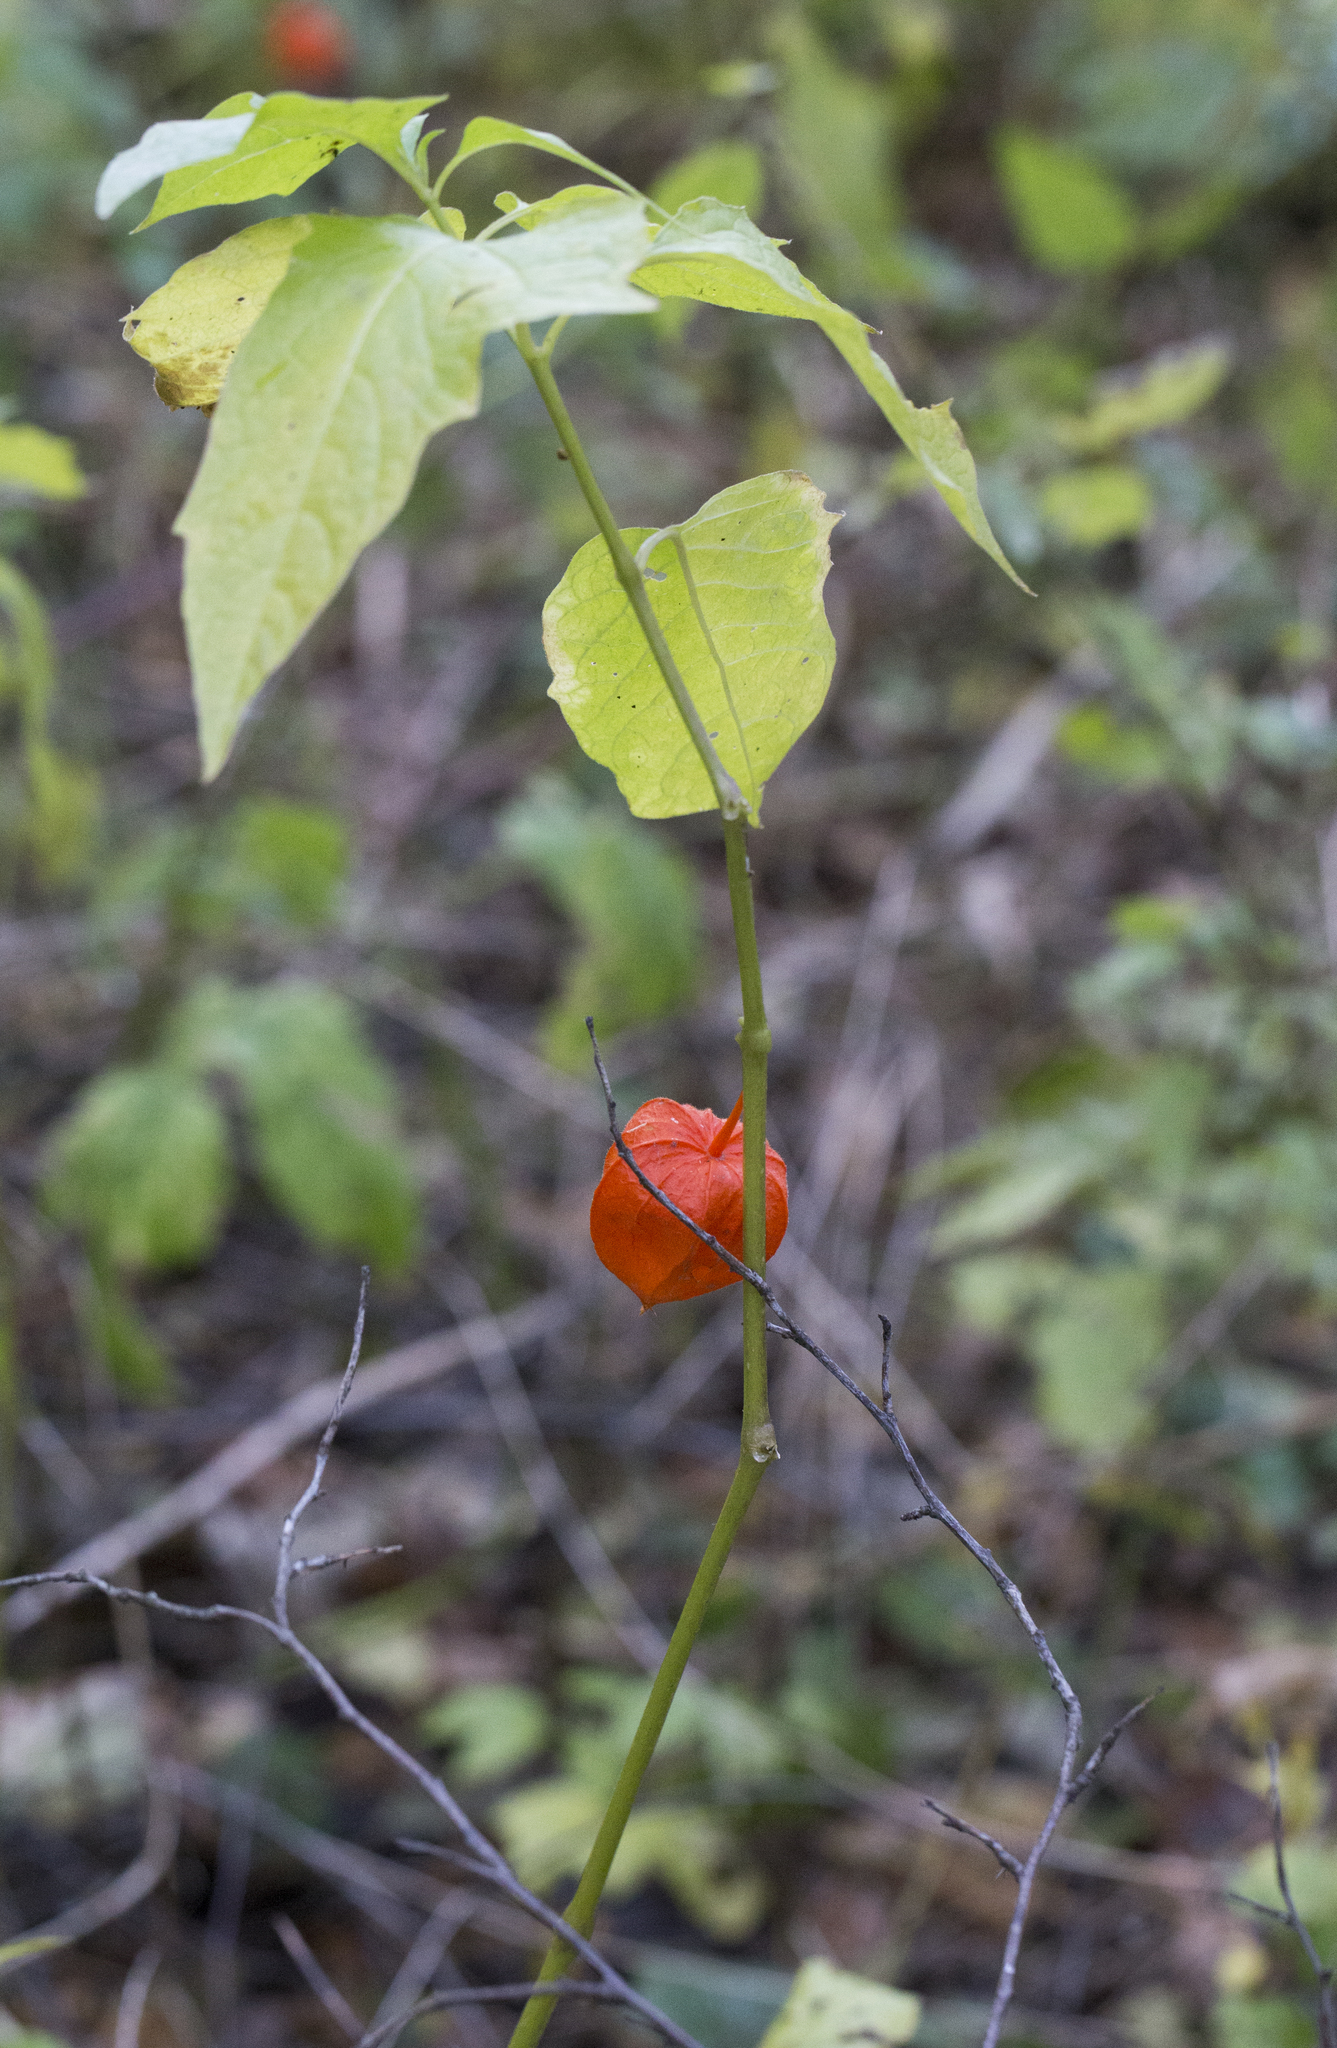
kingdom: Plantae
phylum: Tracheophyta
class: Magnoliopsida
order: Solanales
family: Solanaceae
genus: Alkekengi
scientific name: Alkekengi officinarum
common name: Japanese-lantern
